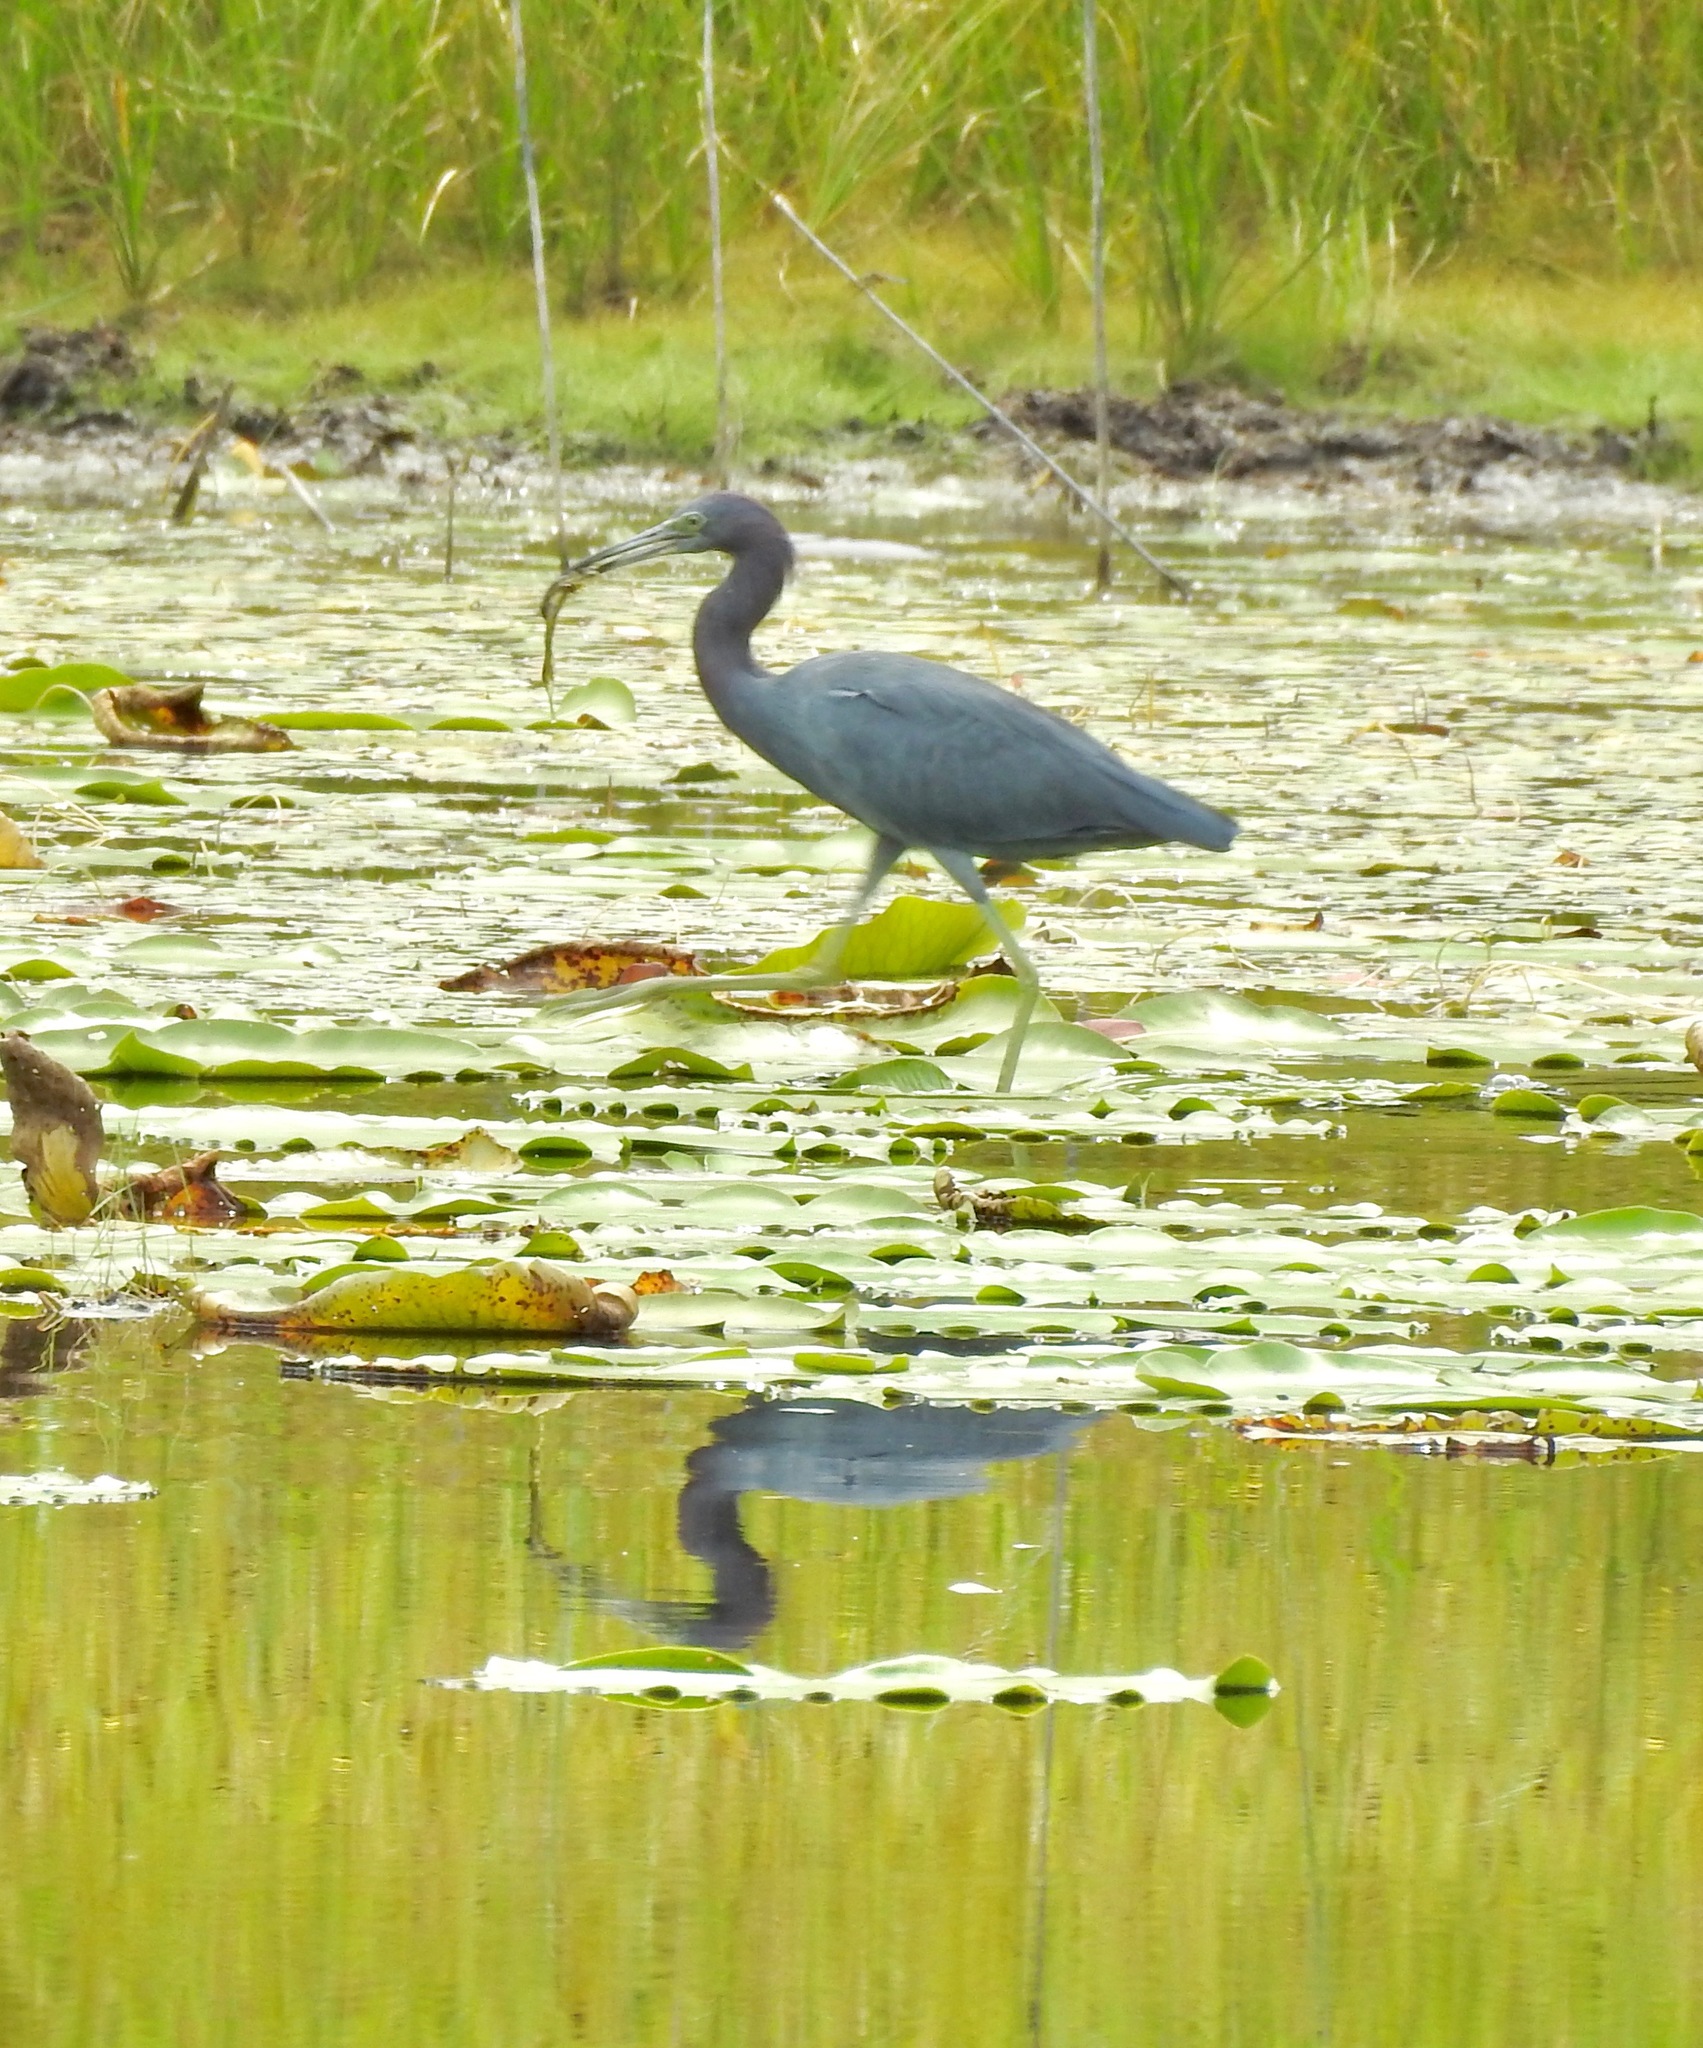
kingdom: Animalia
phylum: Chordata
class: Aves
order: Pelecaniformes
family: Ardeidae
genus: Egretta
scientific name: Egretta caerulea
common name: Little blue heron
